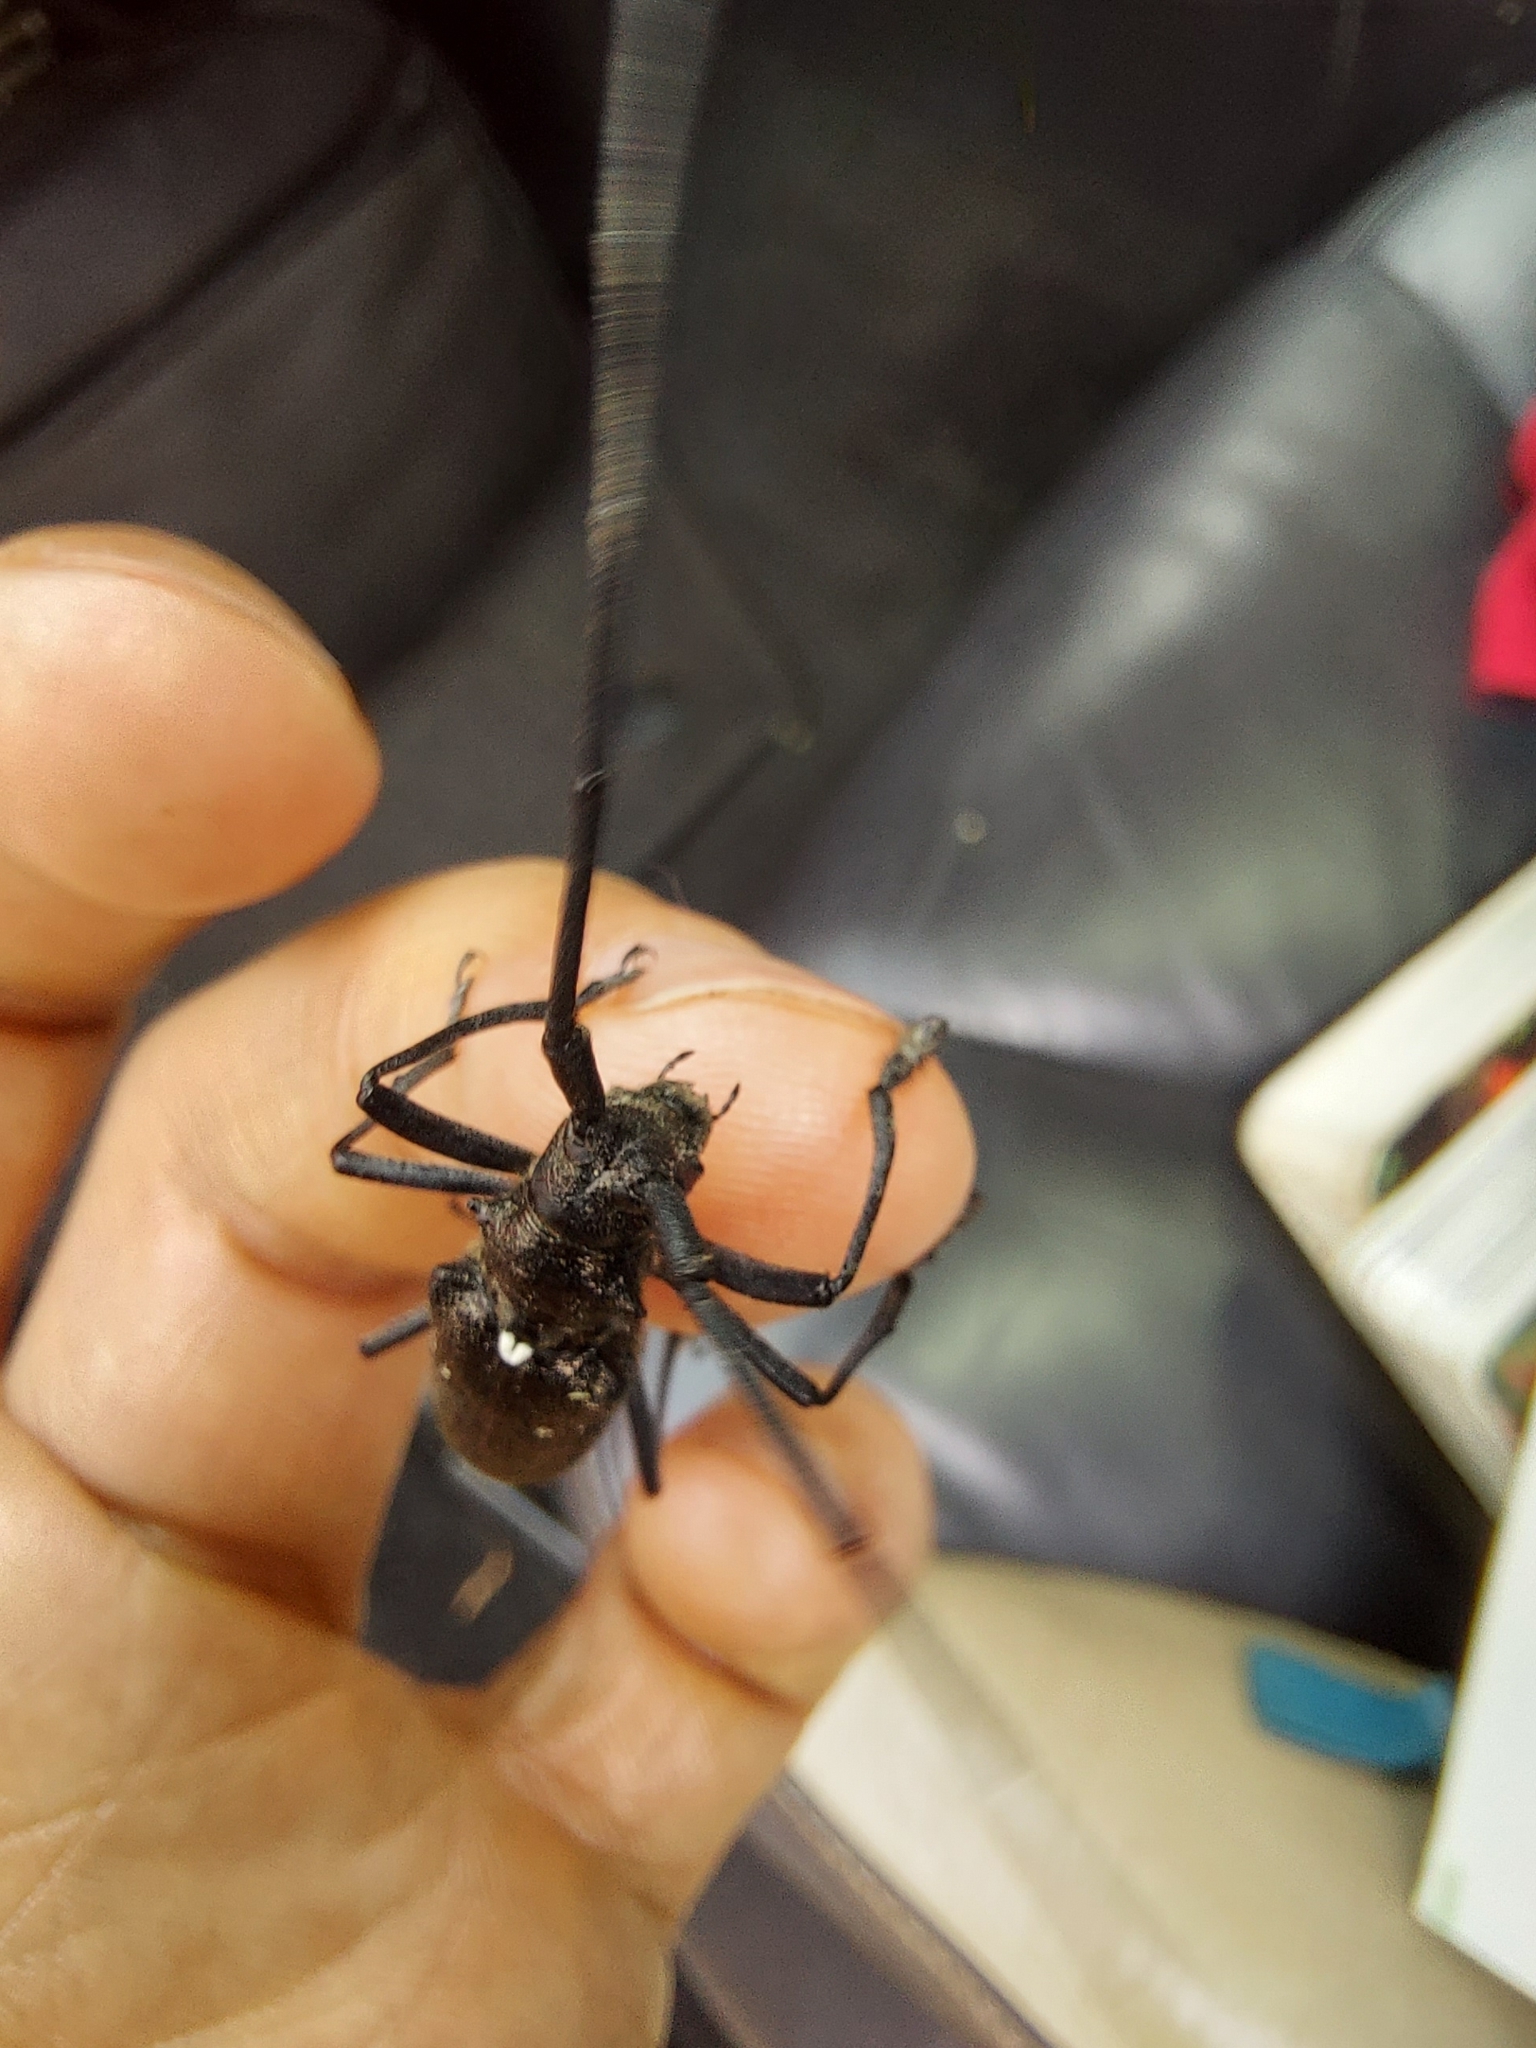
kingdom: Animalia
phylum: Arthropoda
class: Insecta
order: Coleoptera
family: Cerambycidae
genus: Monochamus
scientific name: Monochamus scutellatus
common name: White-spotted sawyer beetle
